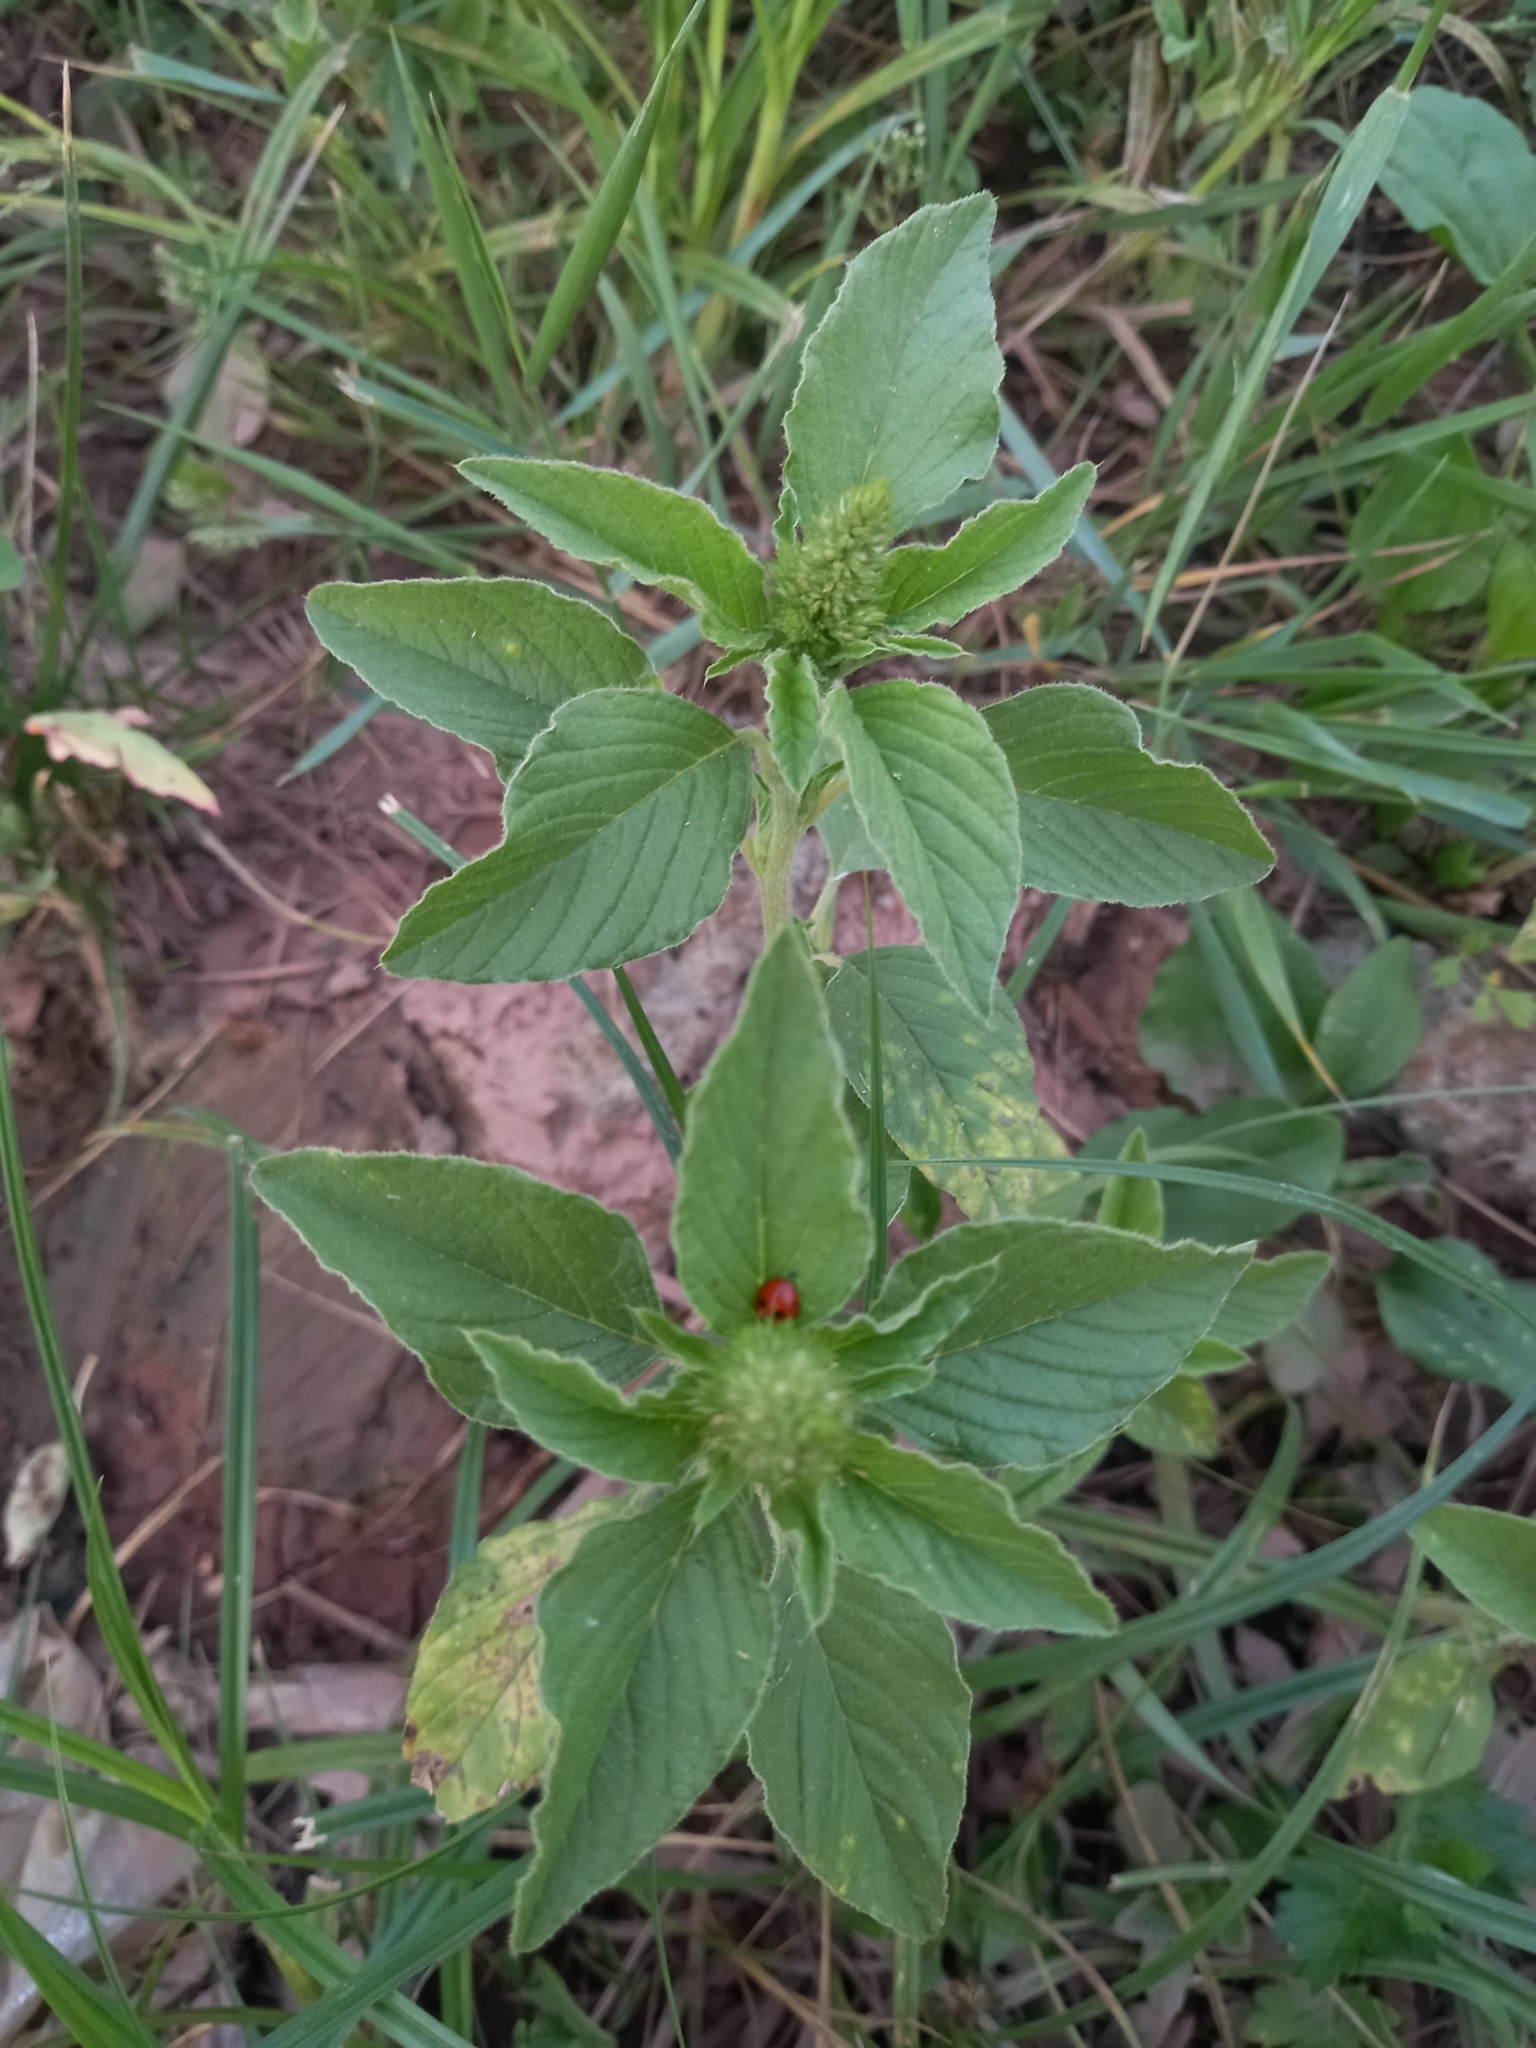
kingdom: Plantae
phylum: Tracheophyta
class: Magnoliopsida
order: Caryophyllales
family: Amaranthaceae
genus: Amaranthus
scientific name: Amaranthus retroflexus
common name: Redroot amaranth
